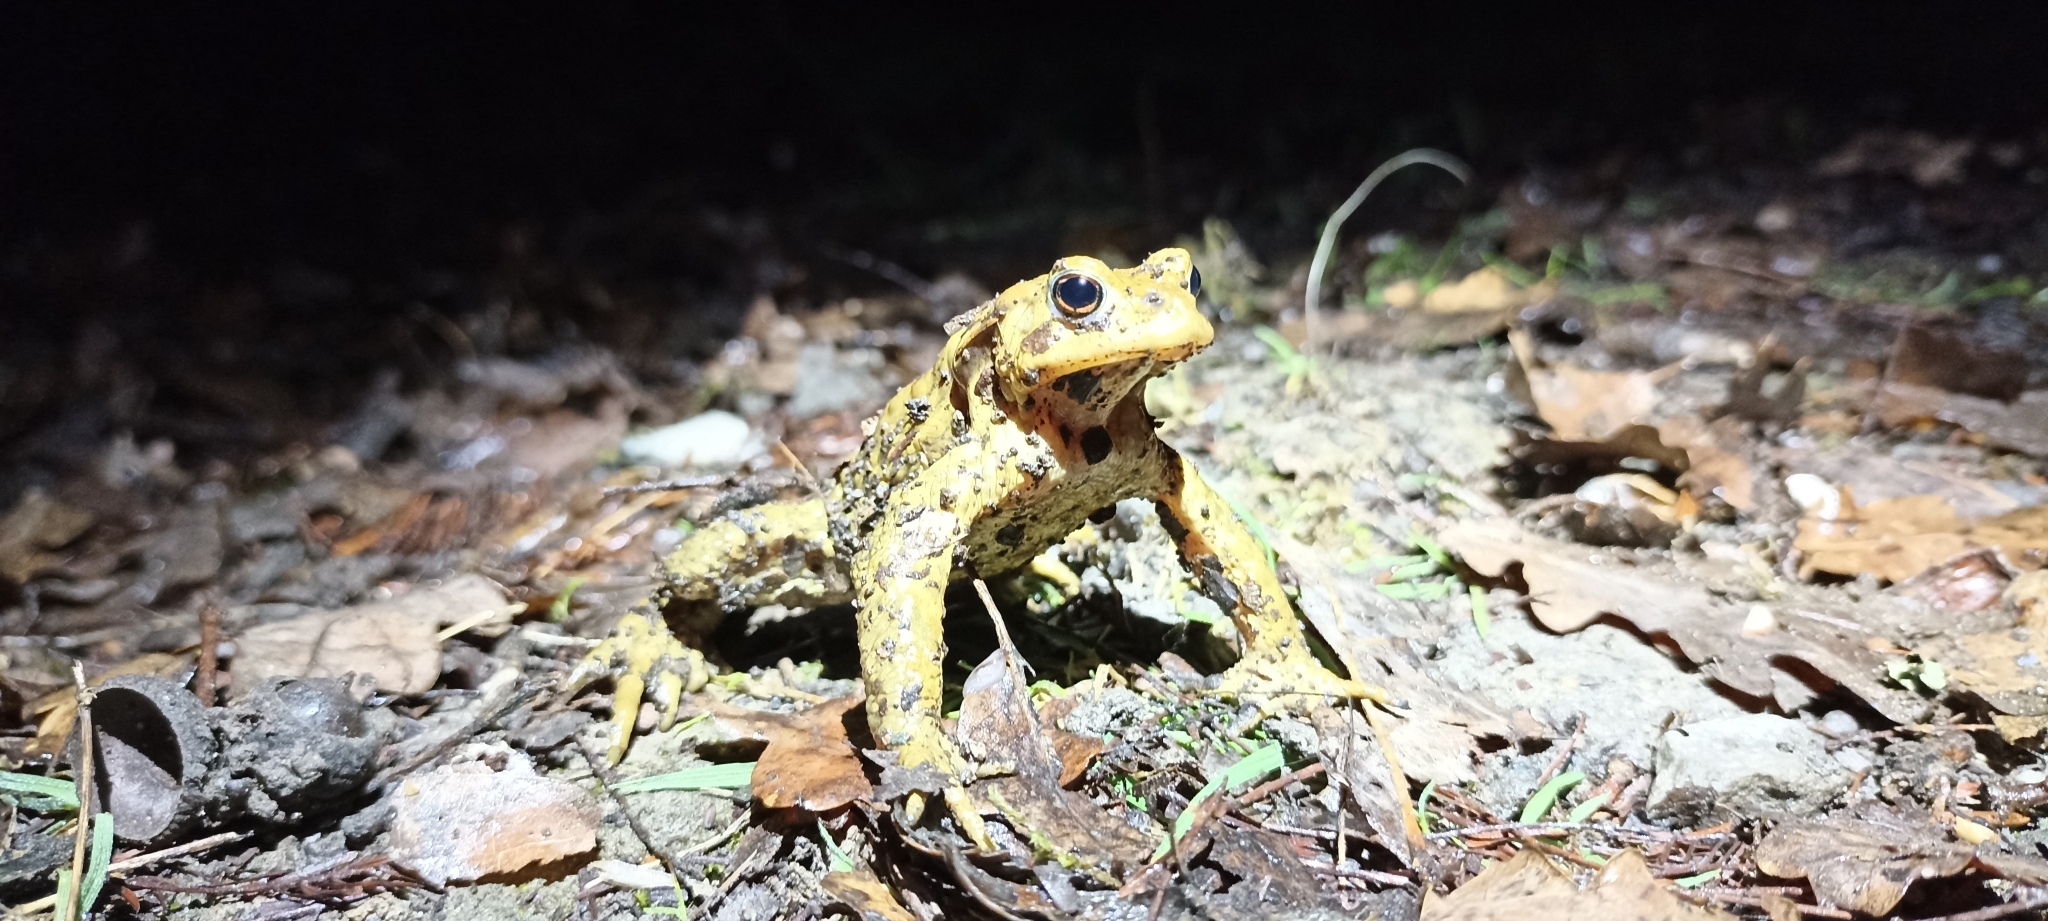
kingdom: Animalia
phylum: Chordata
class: Amphibia
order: Anura
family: Bufonidae
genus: Bufo
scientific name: Bufo spinosus
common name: Western common toad
